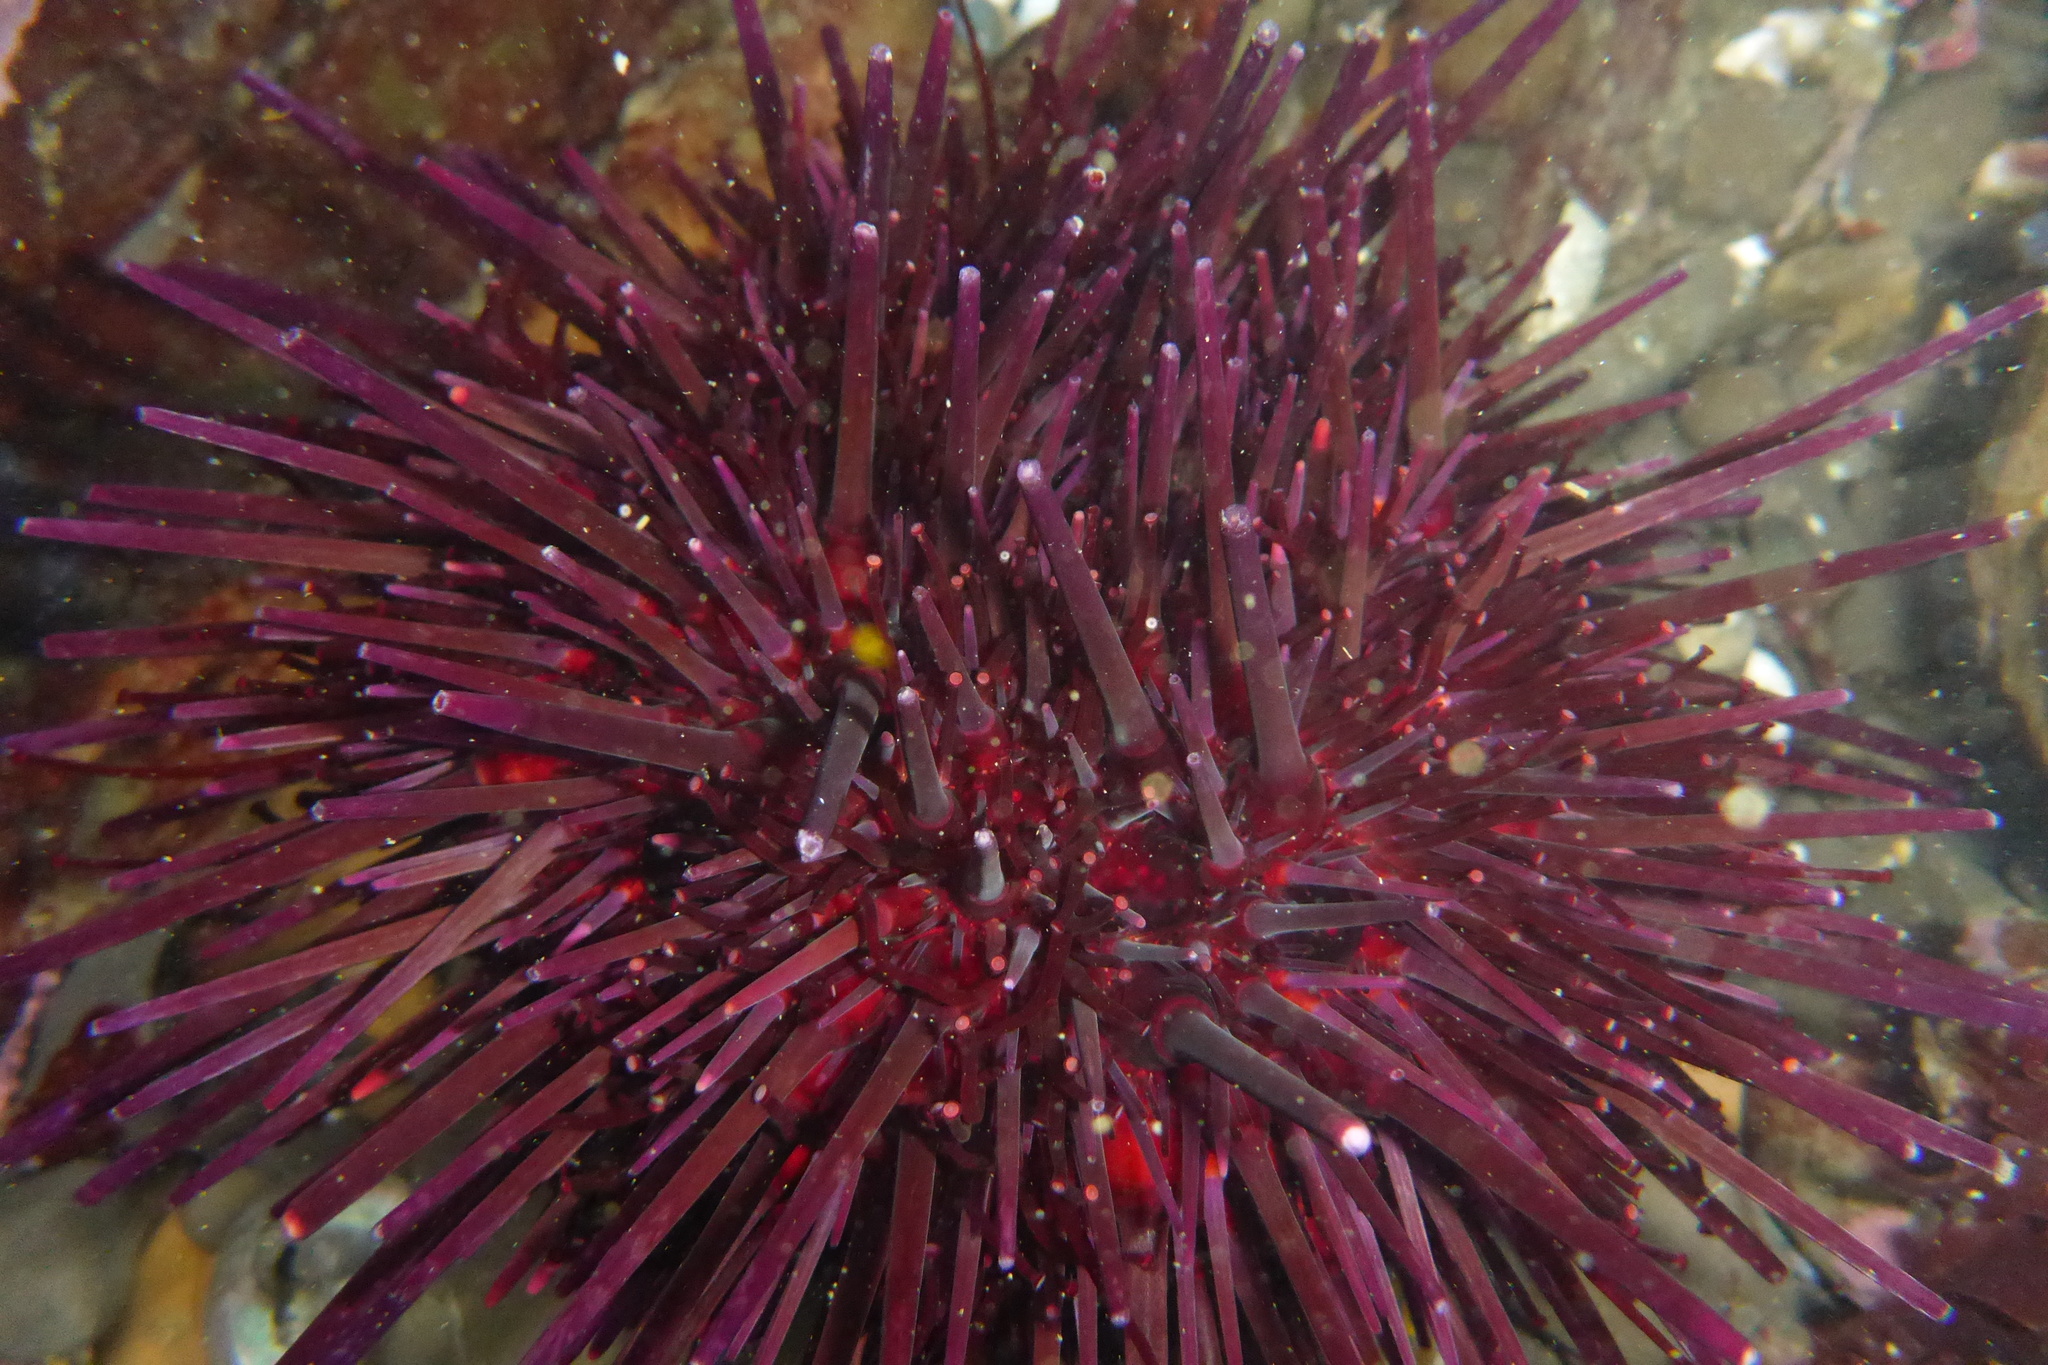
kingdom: Animalia
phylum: Echinodermata
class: Echinoidea
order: Camarodonta
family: Strongylocentrotidae
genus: Mesocentrotus
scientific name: Mesocentrotus franciscanus
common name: Red sea urchin
